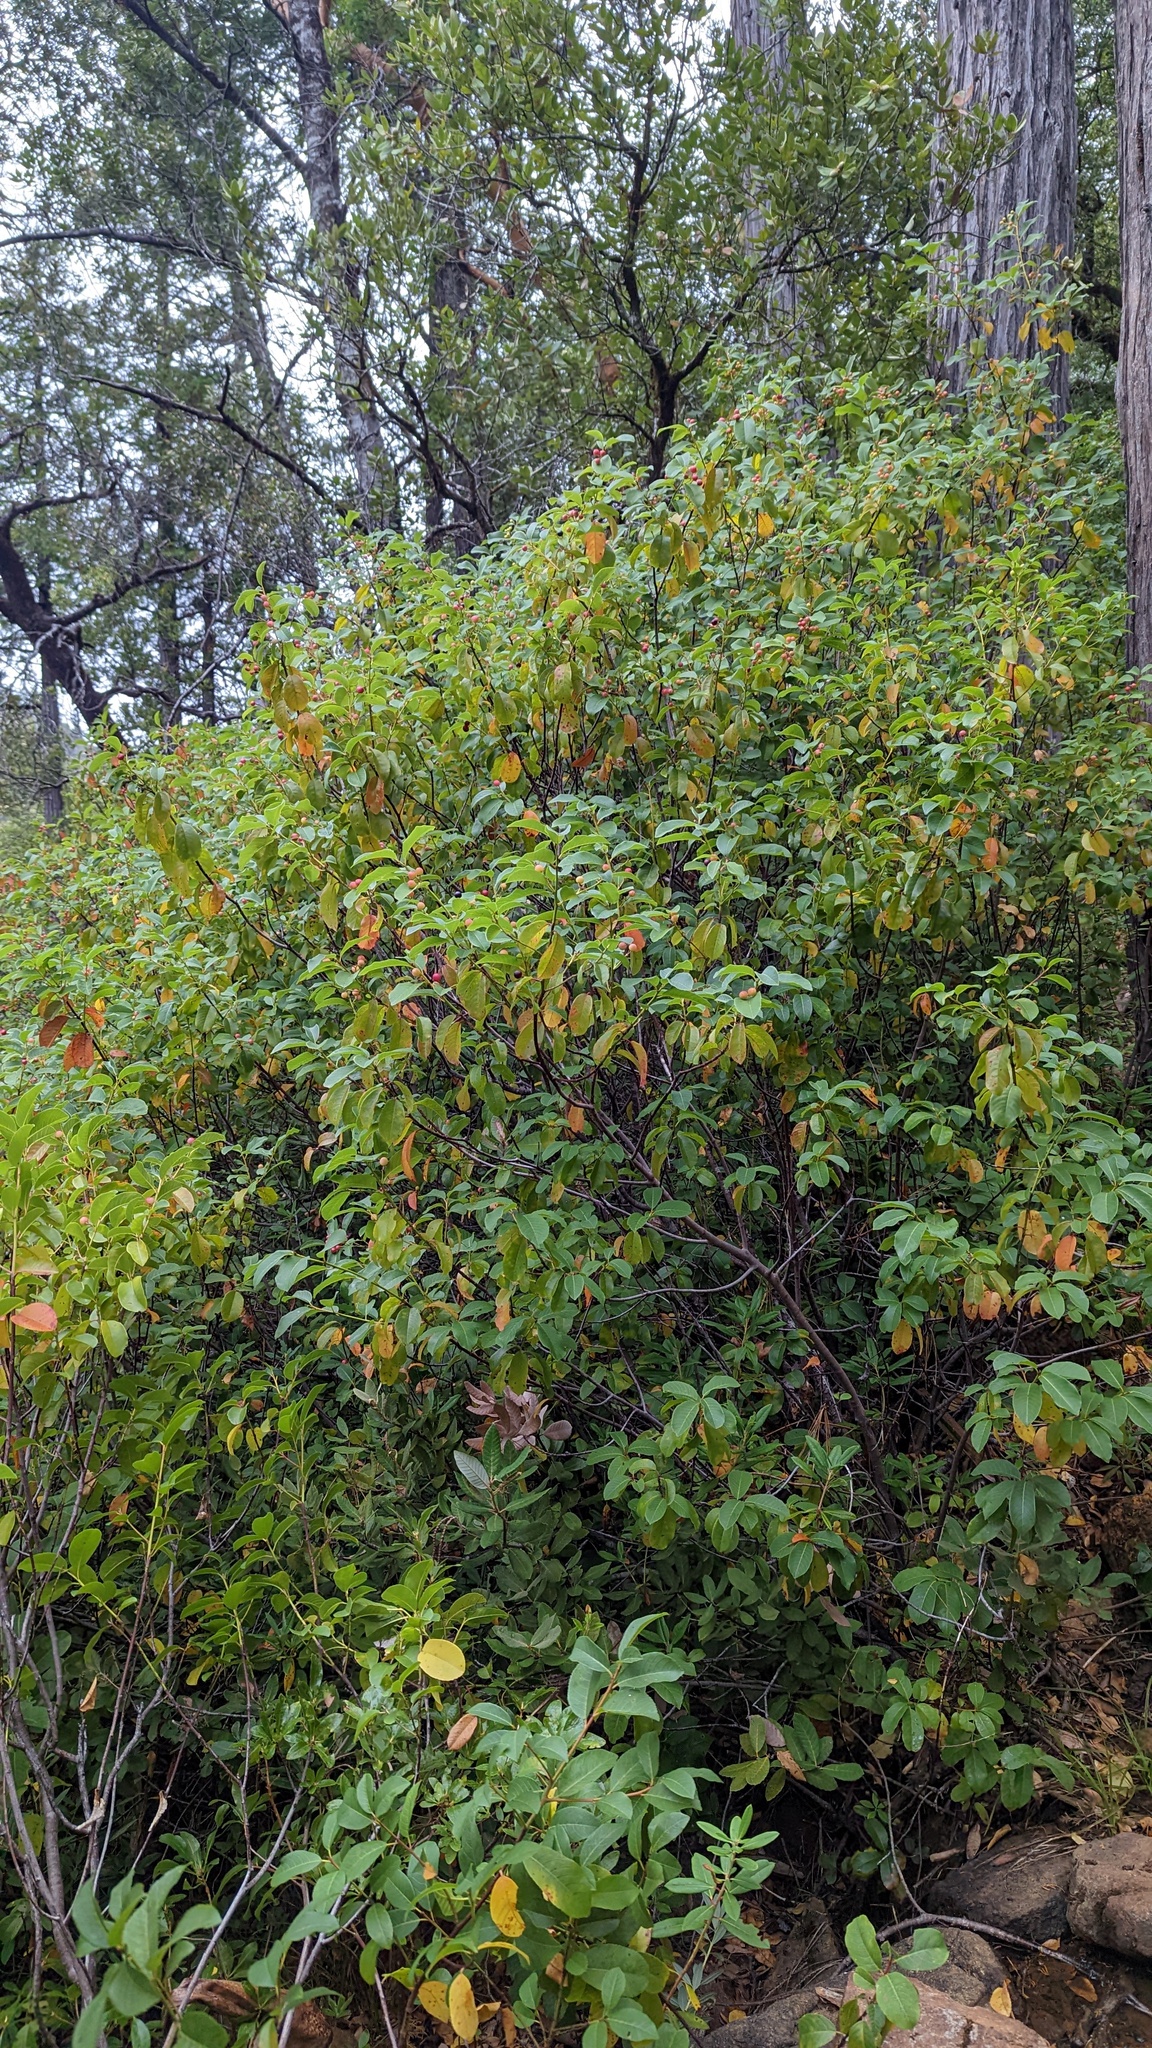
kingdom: Plantae
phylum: Tracheophyta
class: Magnoliopsida
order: Rosales
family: Rhamnaceae
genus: Frangula
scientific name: Frangula californica
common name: California buckthorn
